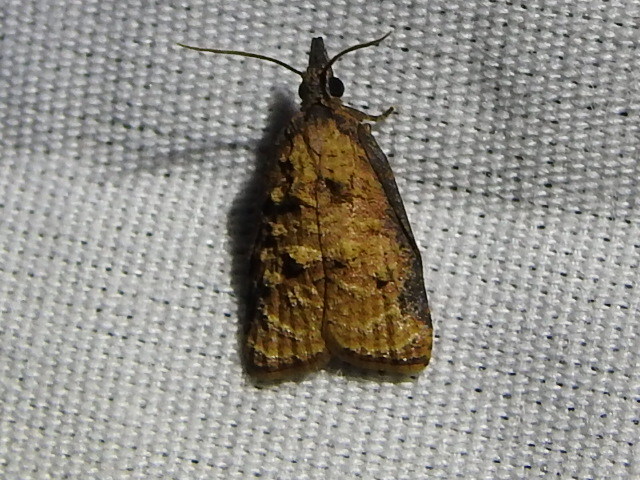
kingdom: Animalia
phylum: Arthropoda
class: Insecta
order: Lepidoptera
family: Tortricidae
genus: Platynota
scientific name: Platynota rostrana
